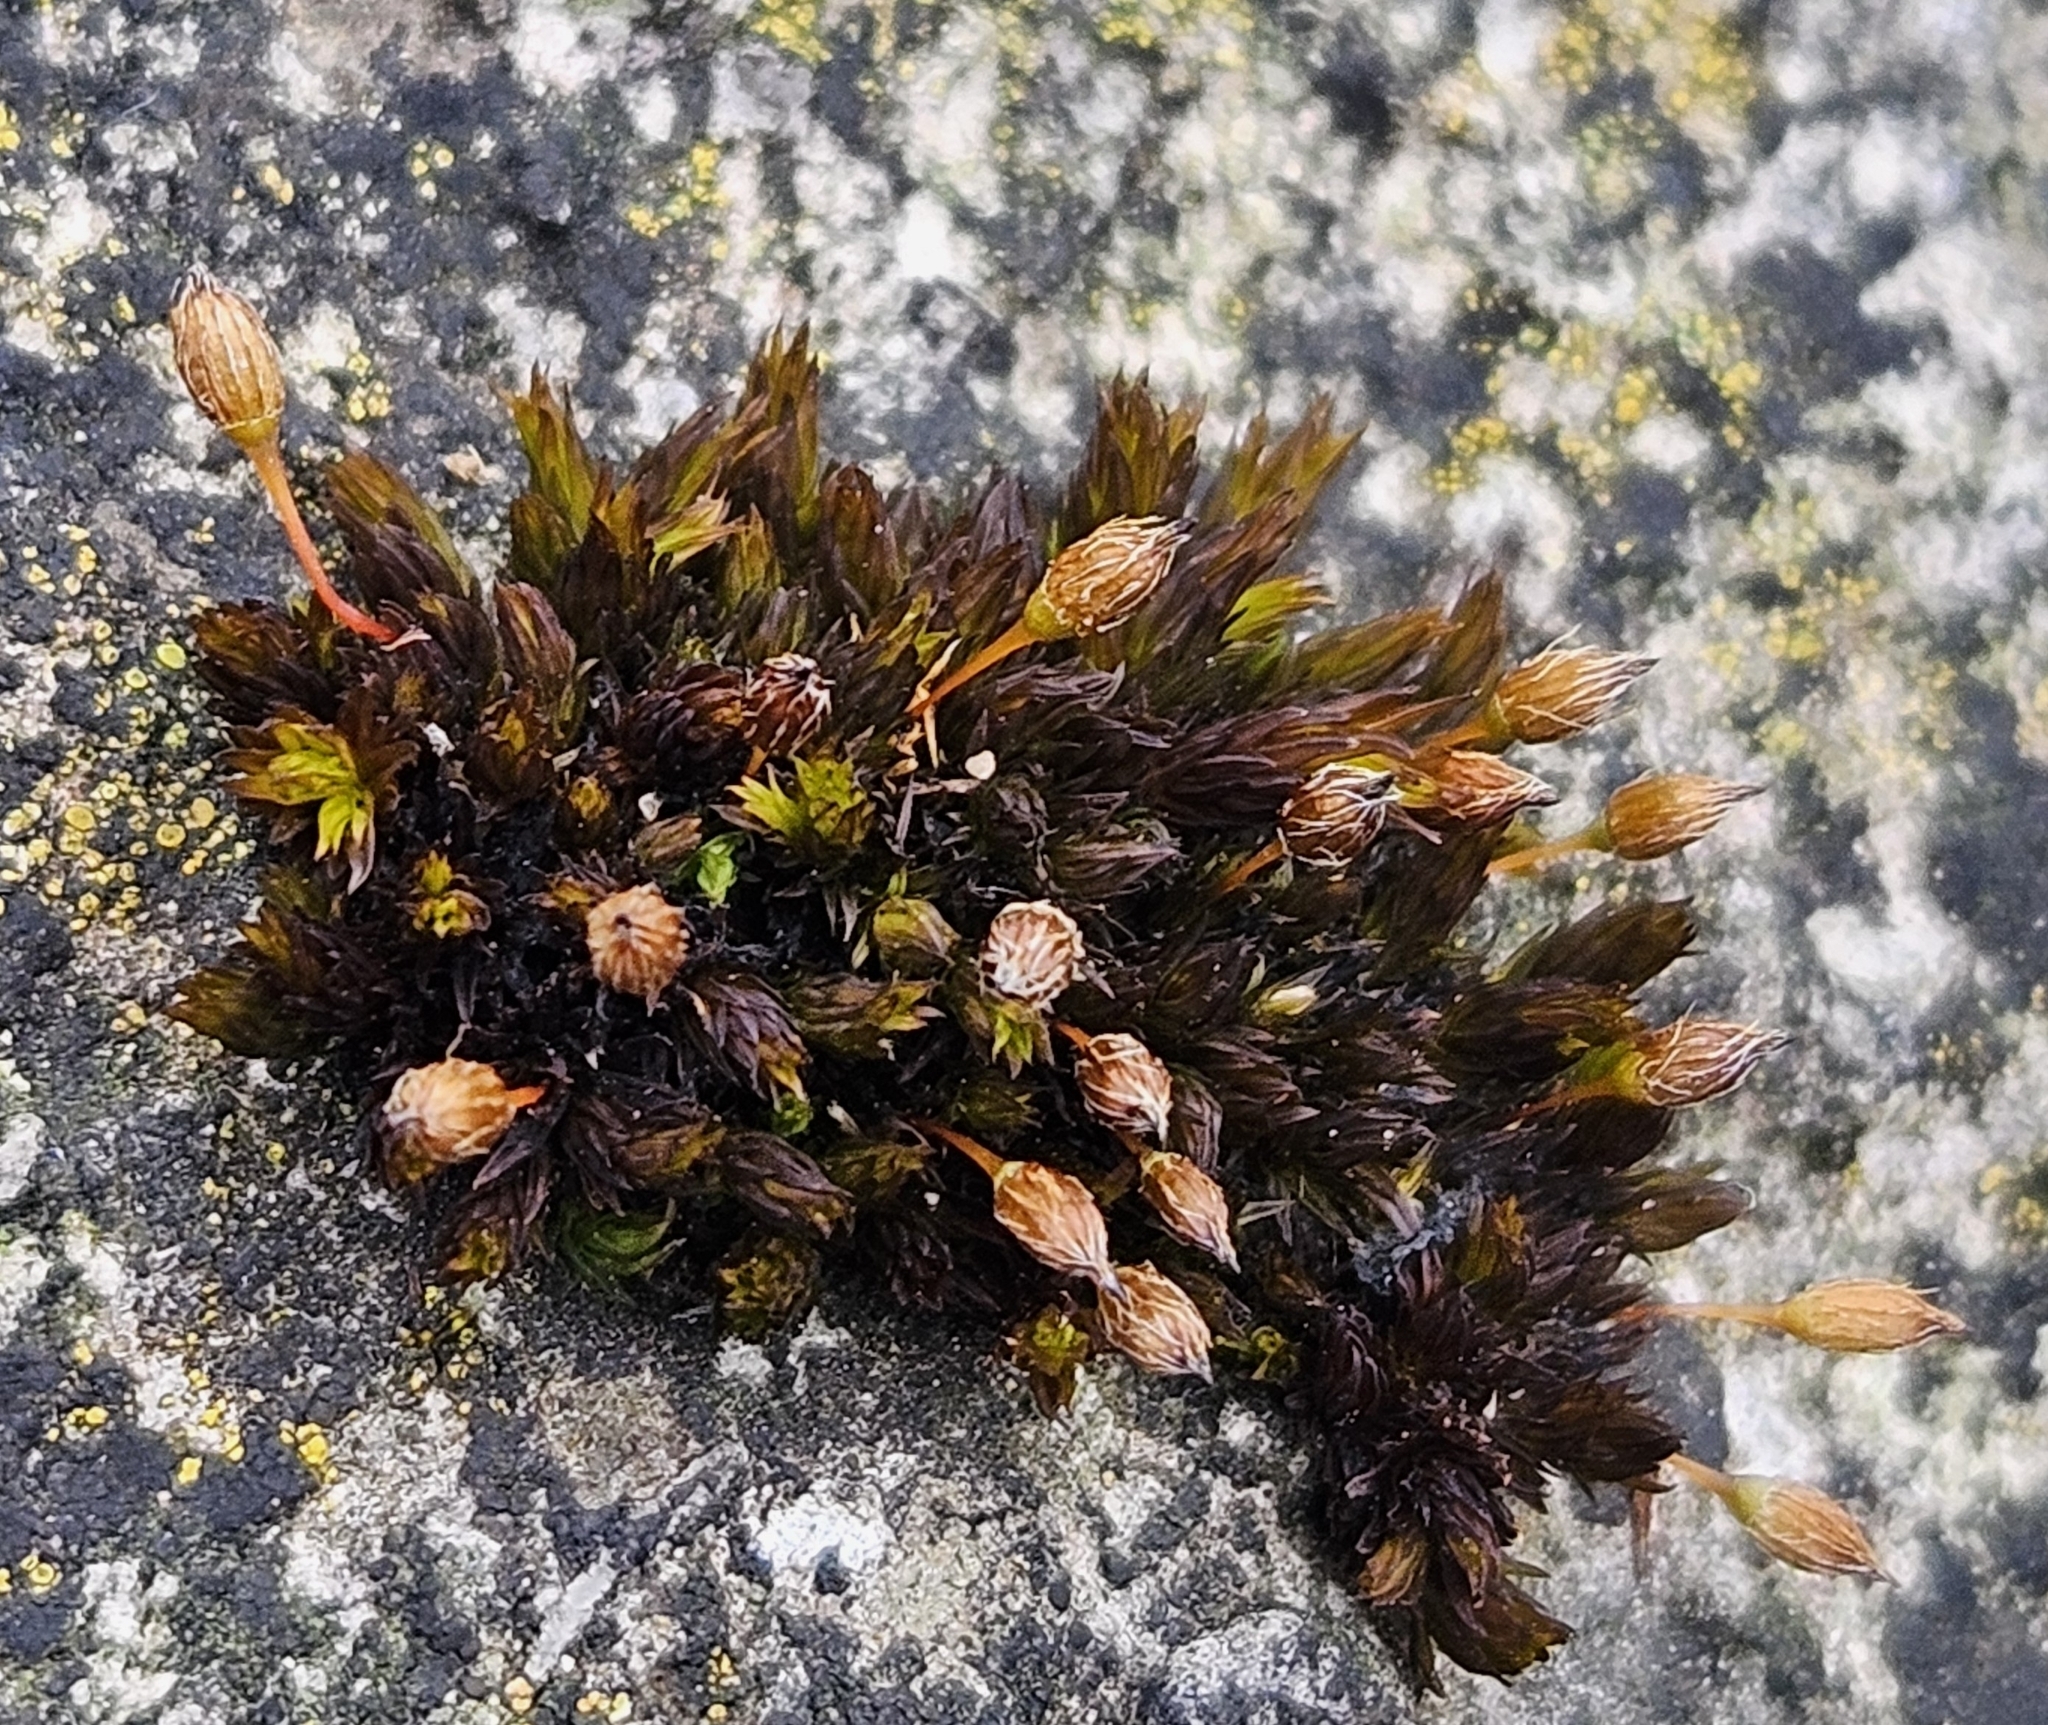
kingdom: Plantae
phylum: Bryophyta
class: Bryopsida
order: Orthotrichales
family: Orthotrichaceae
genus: Orthotrichum
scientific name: Orthotrichum anomalum
